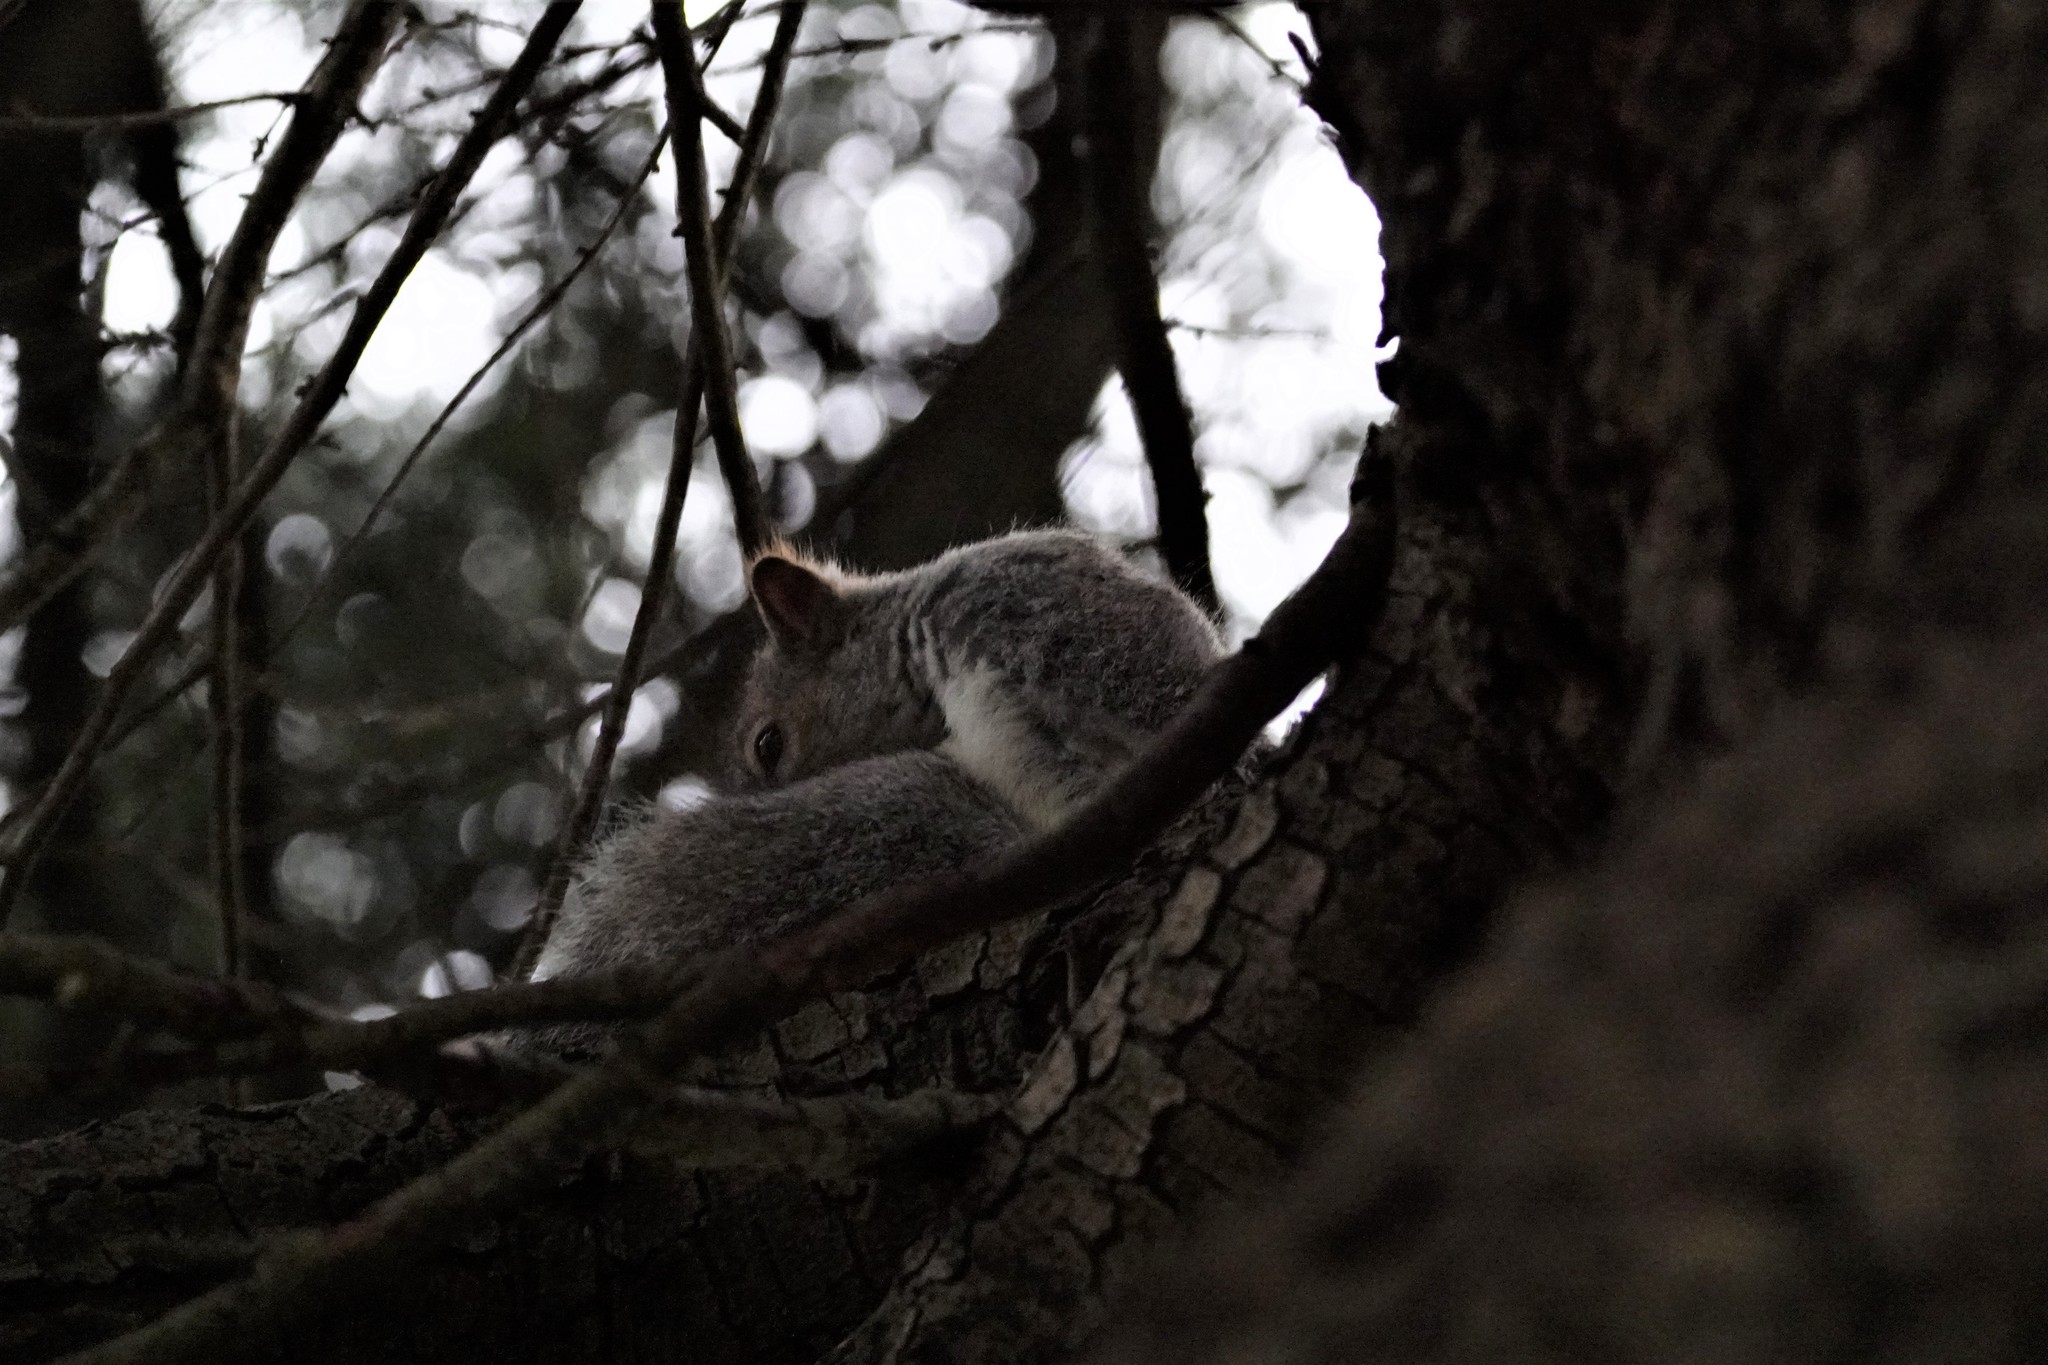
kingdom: Animalia
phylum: Chordata
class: Mammalia
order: Rodentia
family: Sciuridae
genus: Sciurus
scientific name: Sciurus carolinensis
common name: Eastern gray squirrel
